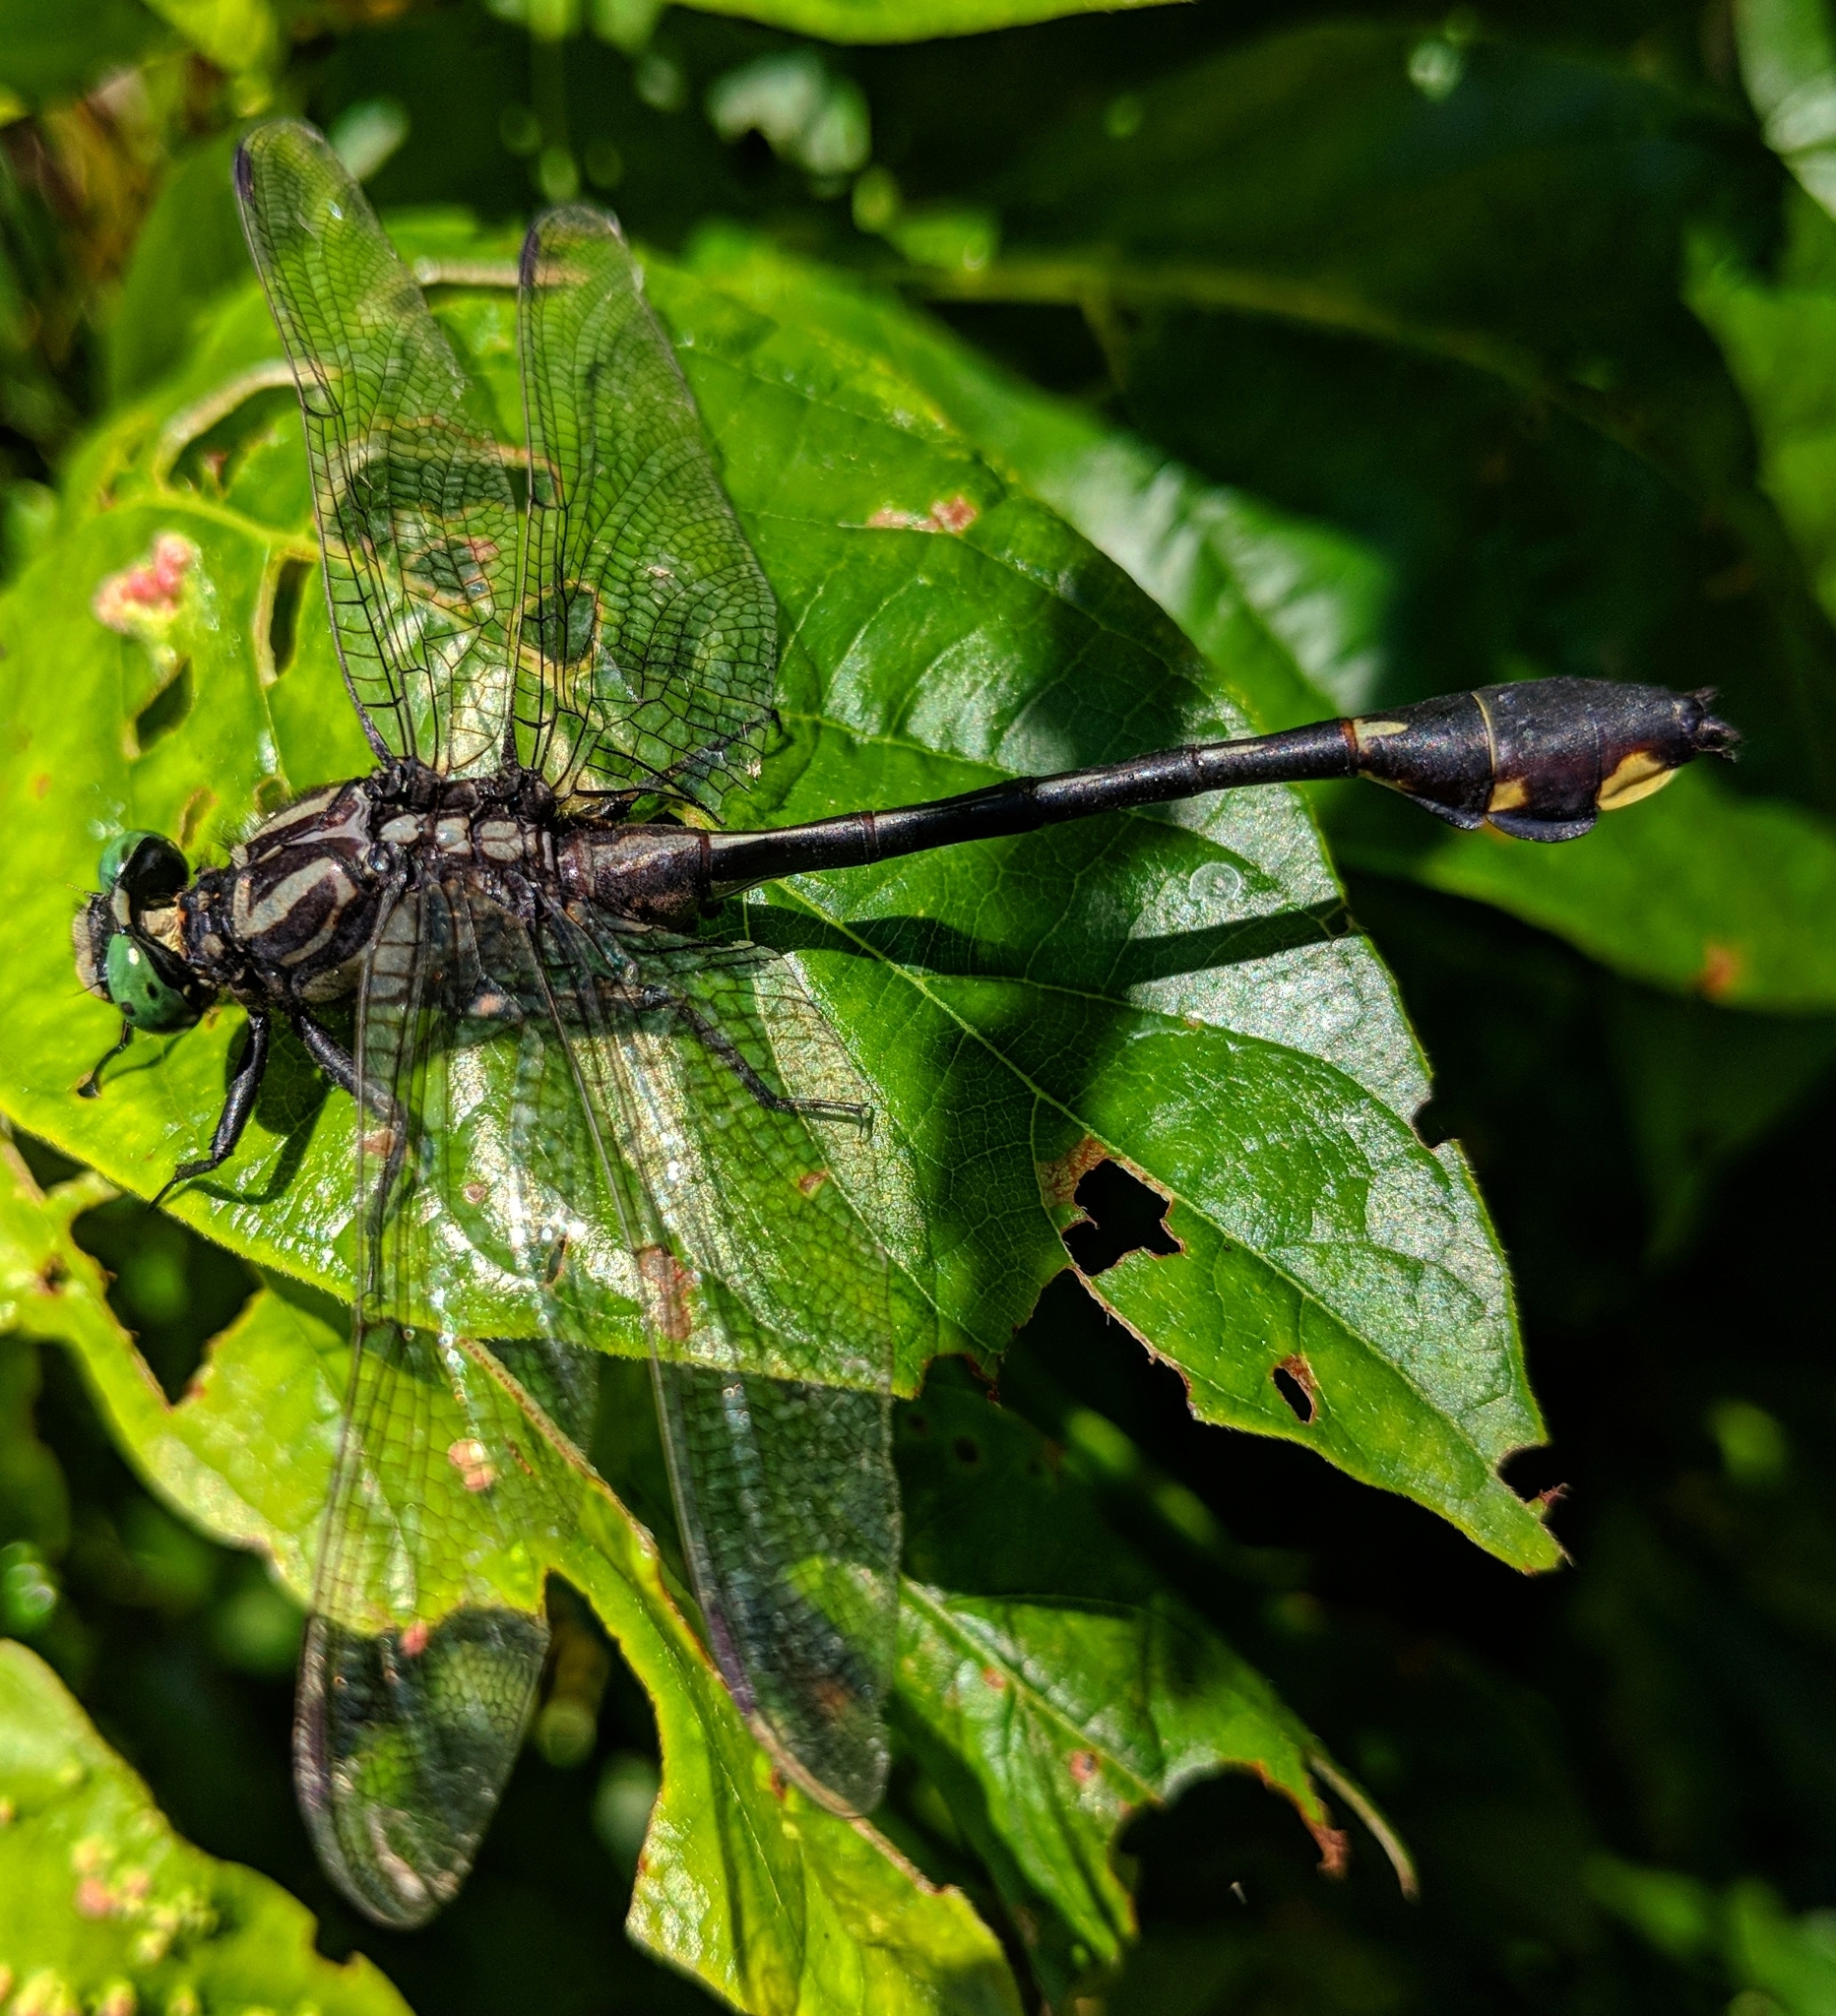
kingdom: Animalia
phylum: Arthropoda
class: Insecta
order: Odonata
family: Gomphidae
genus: Gomphurus
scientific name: Gomphurus vastus
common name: Cobra clubtail
